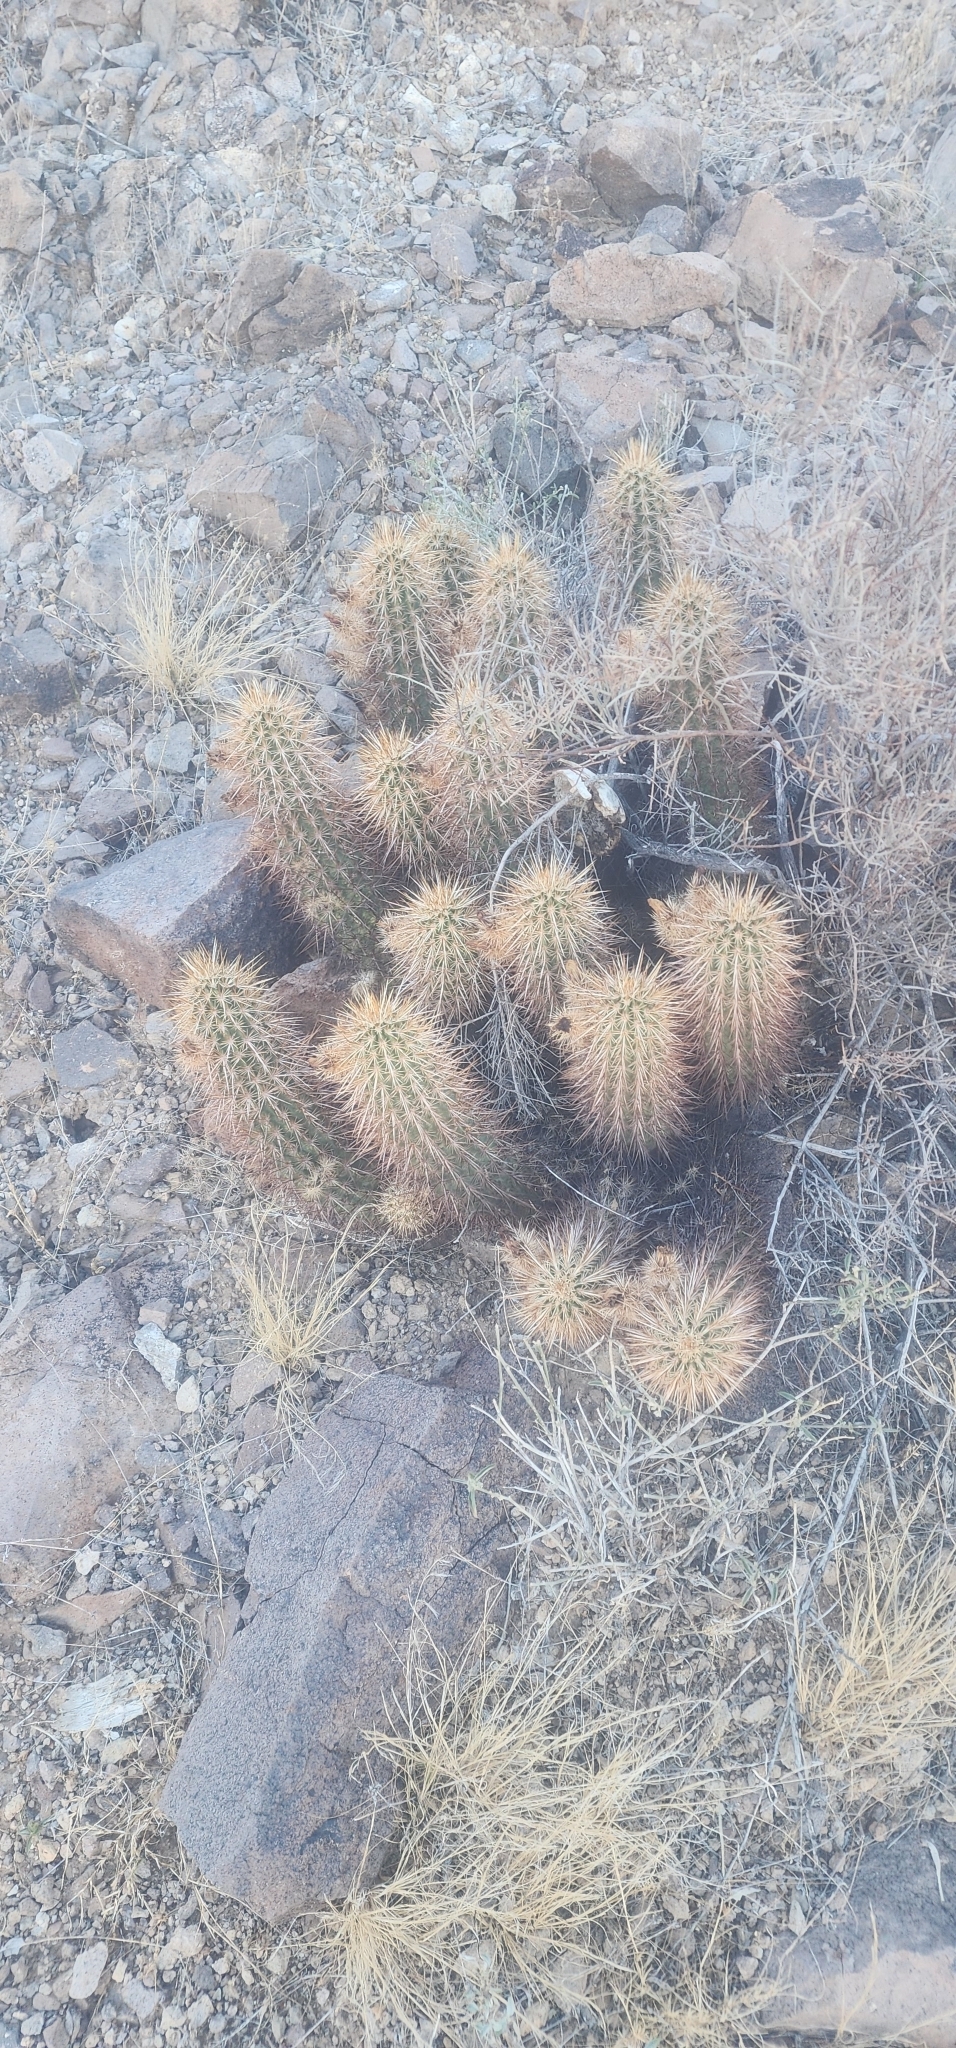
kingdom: Plantae
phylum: Tracheophyta
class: Magnoliopsida
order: Caryophyllales
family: Cactaceae
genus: Echinocereus
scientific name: Echinocereus engelmannii
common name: Engelmann's hedgehog cactus
